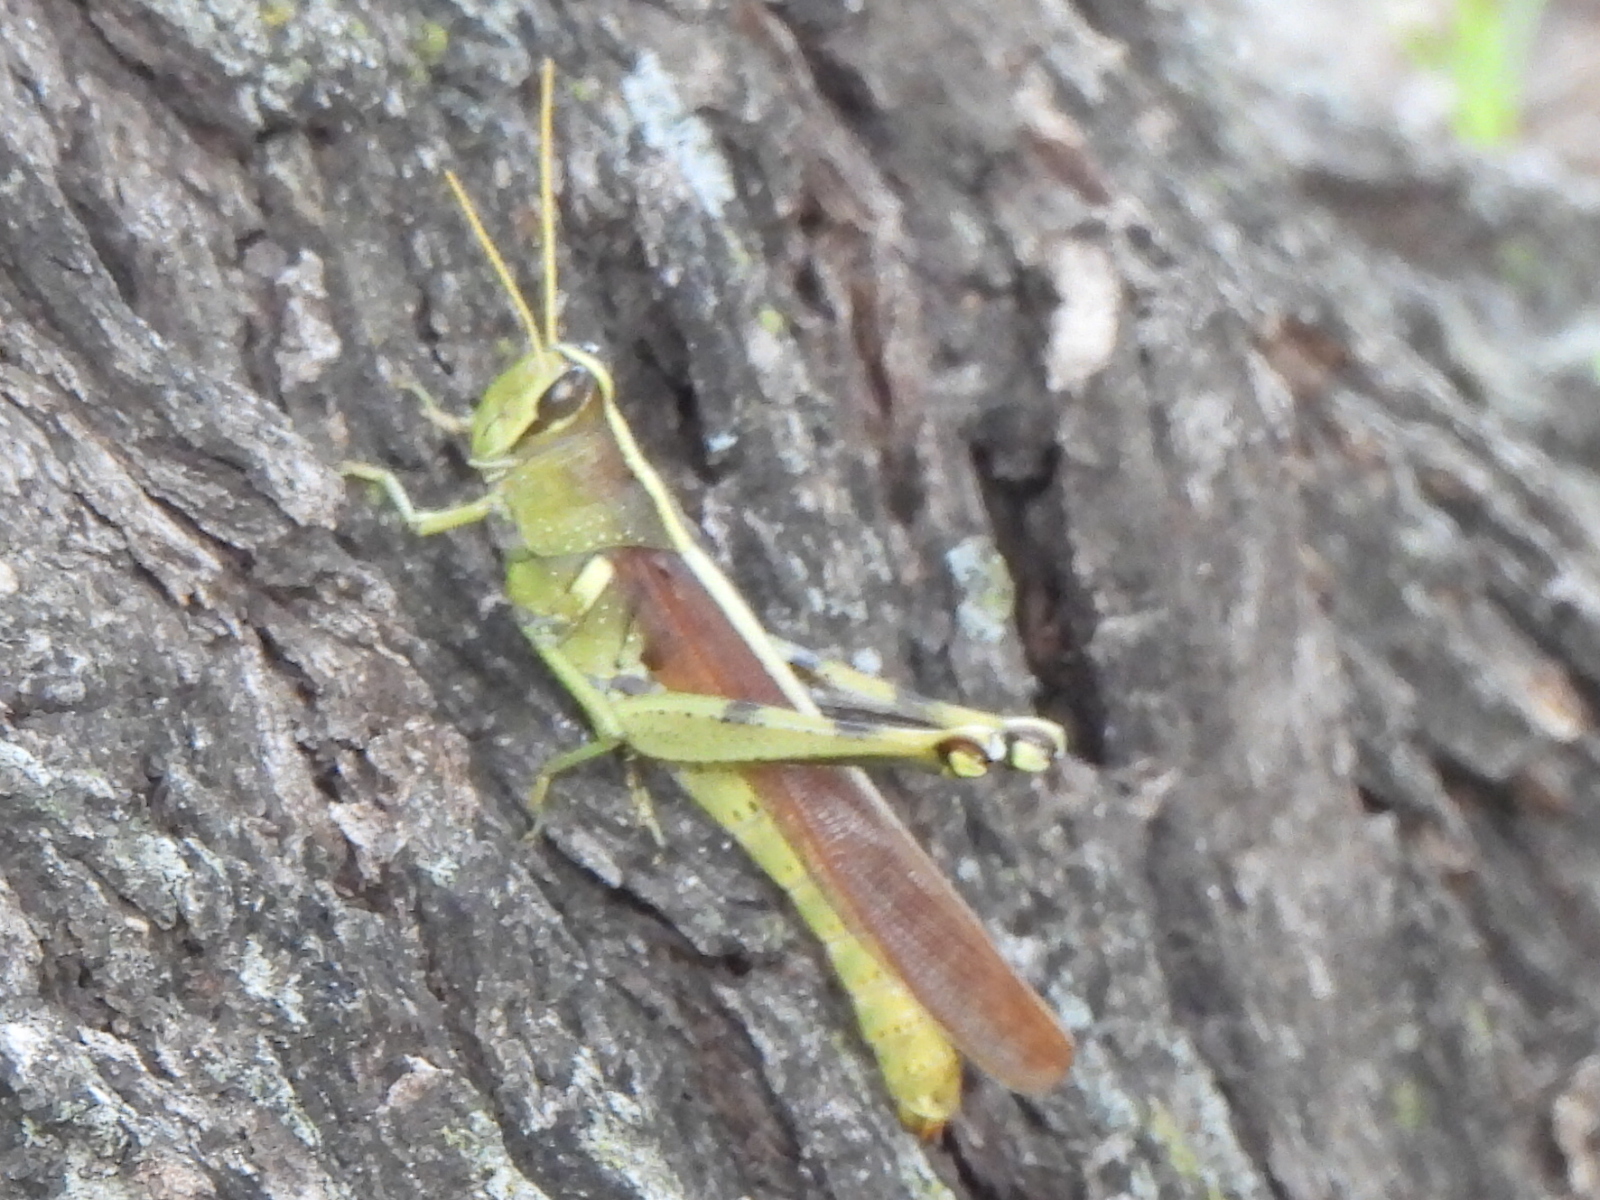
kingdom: Animalia
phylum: Arthropoda
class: Insecta
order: Orthoptera
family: Acrididae
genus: Schistocerca
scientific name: Schistocerca obscura
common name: Obscure bird grasshopper
